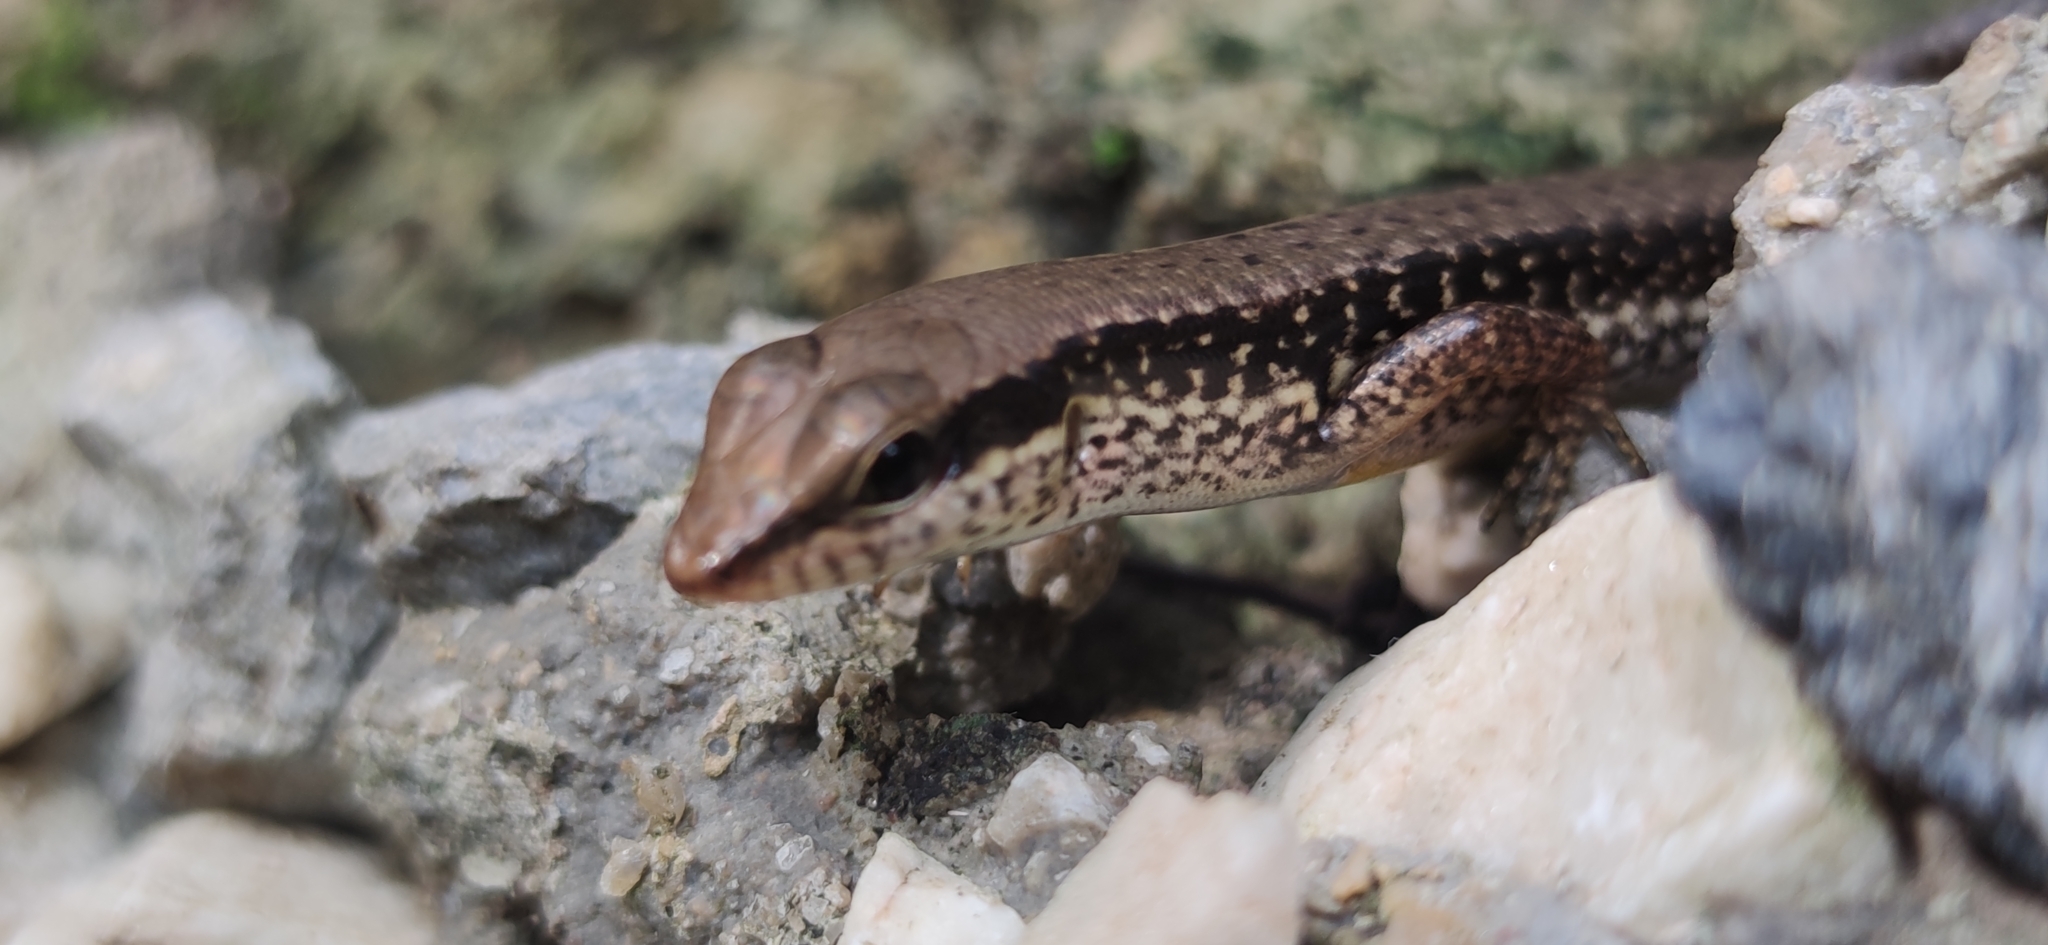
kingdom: Animalia
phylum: Chordata
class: Squamata
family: Scincidae
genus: Sphenomorphus
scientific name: Sphenomorphus maculatus
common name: Maculated forest skink
